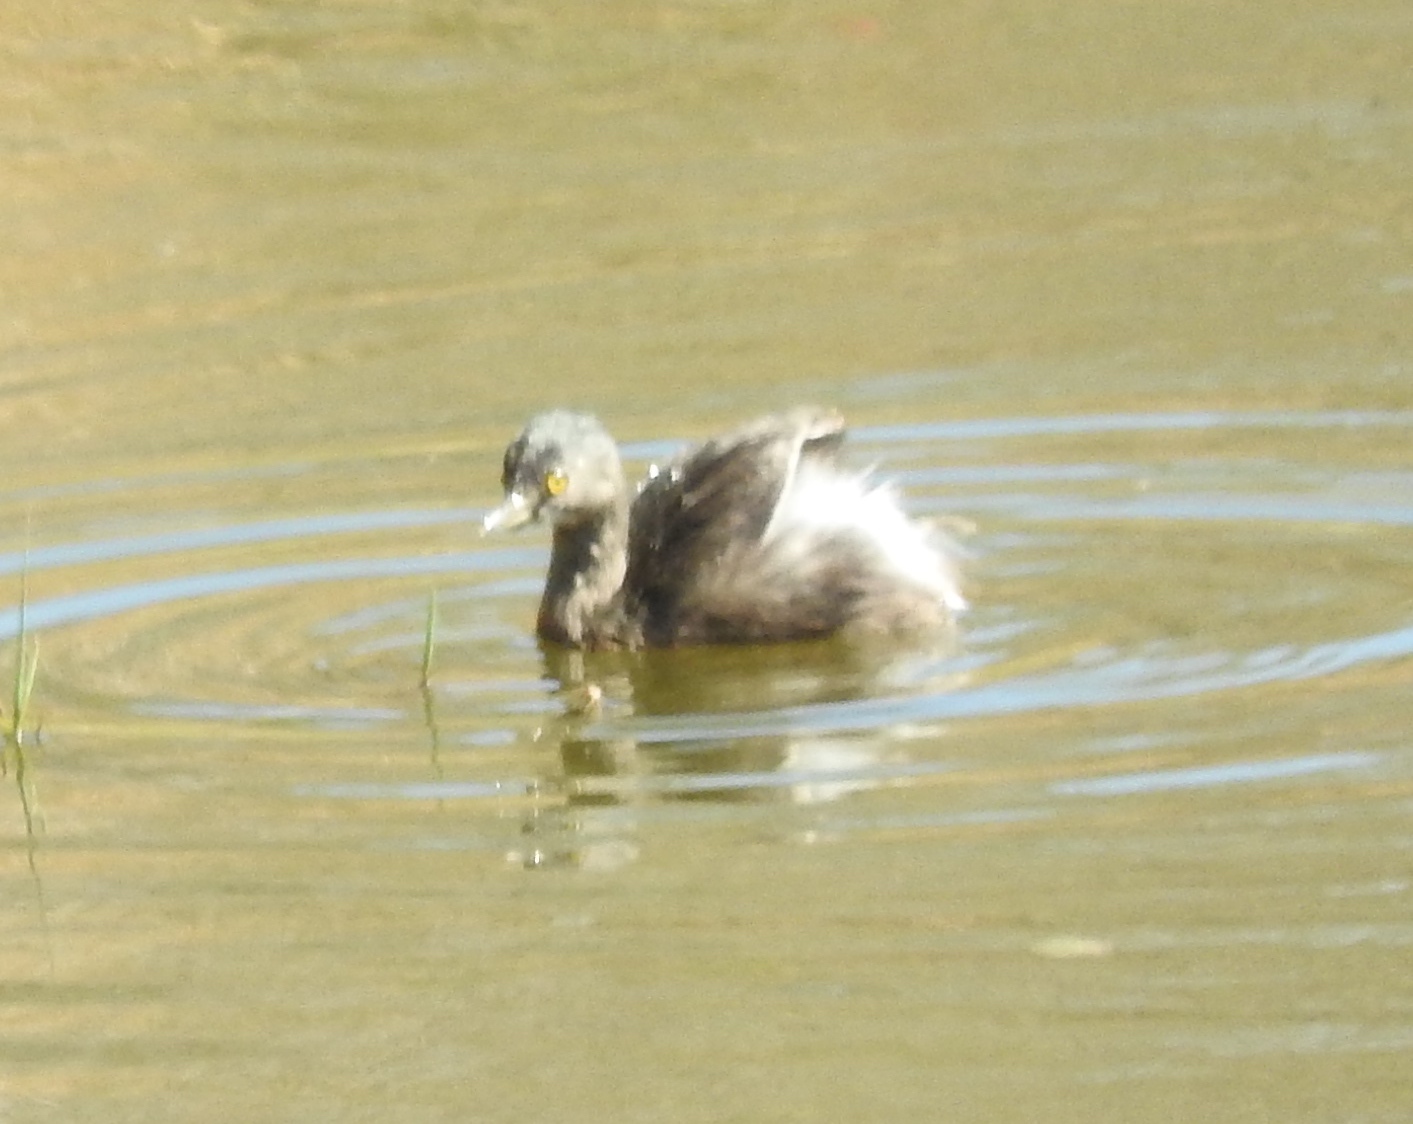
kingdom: Animalia
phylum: Chordata
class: Aves
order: Podicipediformes
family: Podicipedidae
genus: Tachybaptus
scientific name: Tachybaptus dominicus
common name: Least grebe
